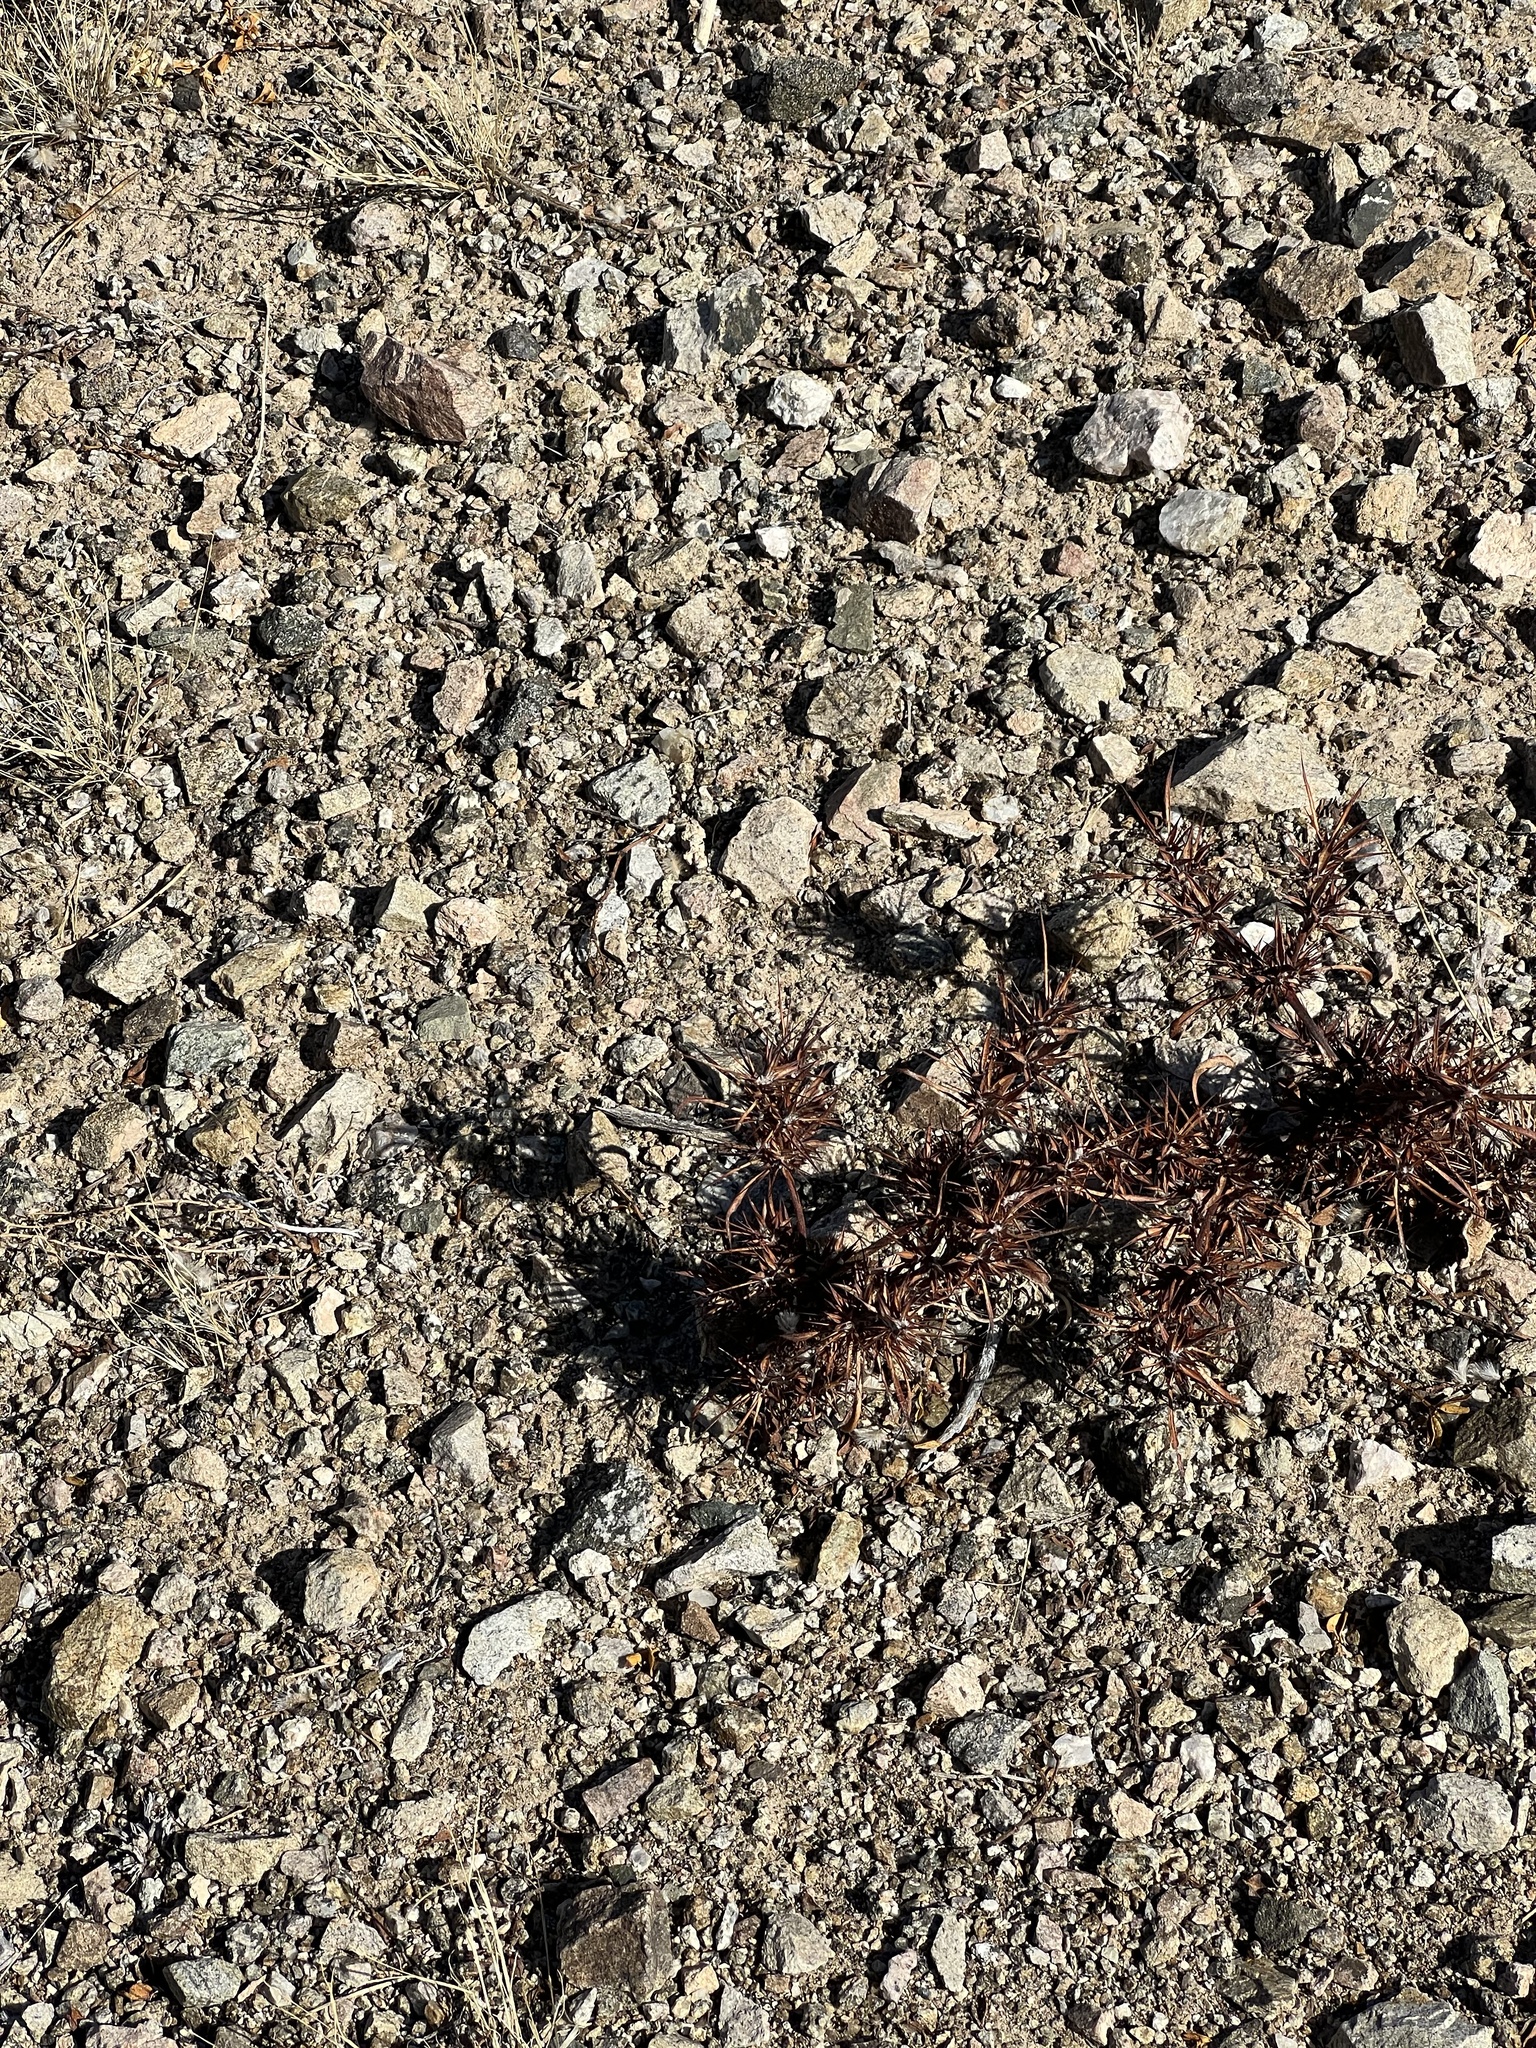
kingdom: Plantae
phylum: Tracheophyta
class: Magnoliopsida
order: Caryophyllales
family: Polygonaceae
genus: Chorizanthe
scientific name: Chorizanthe rigida
